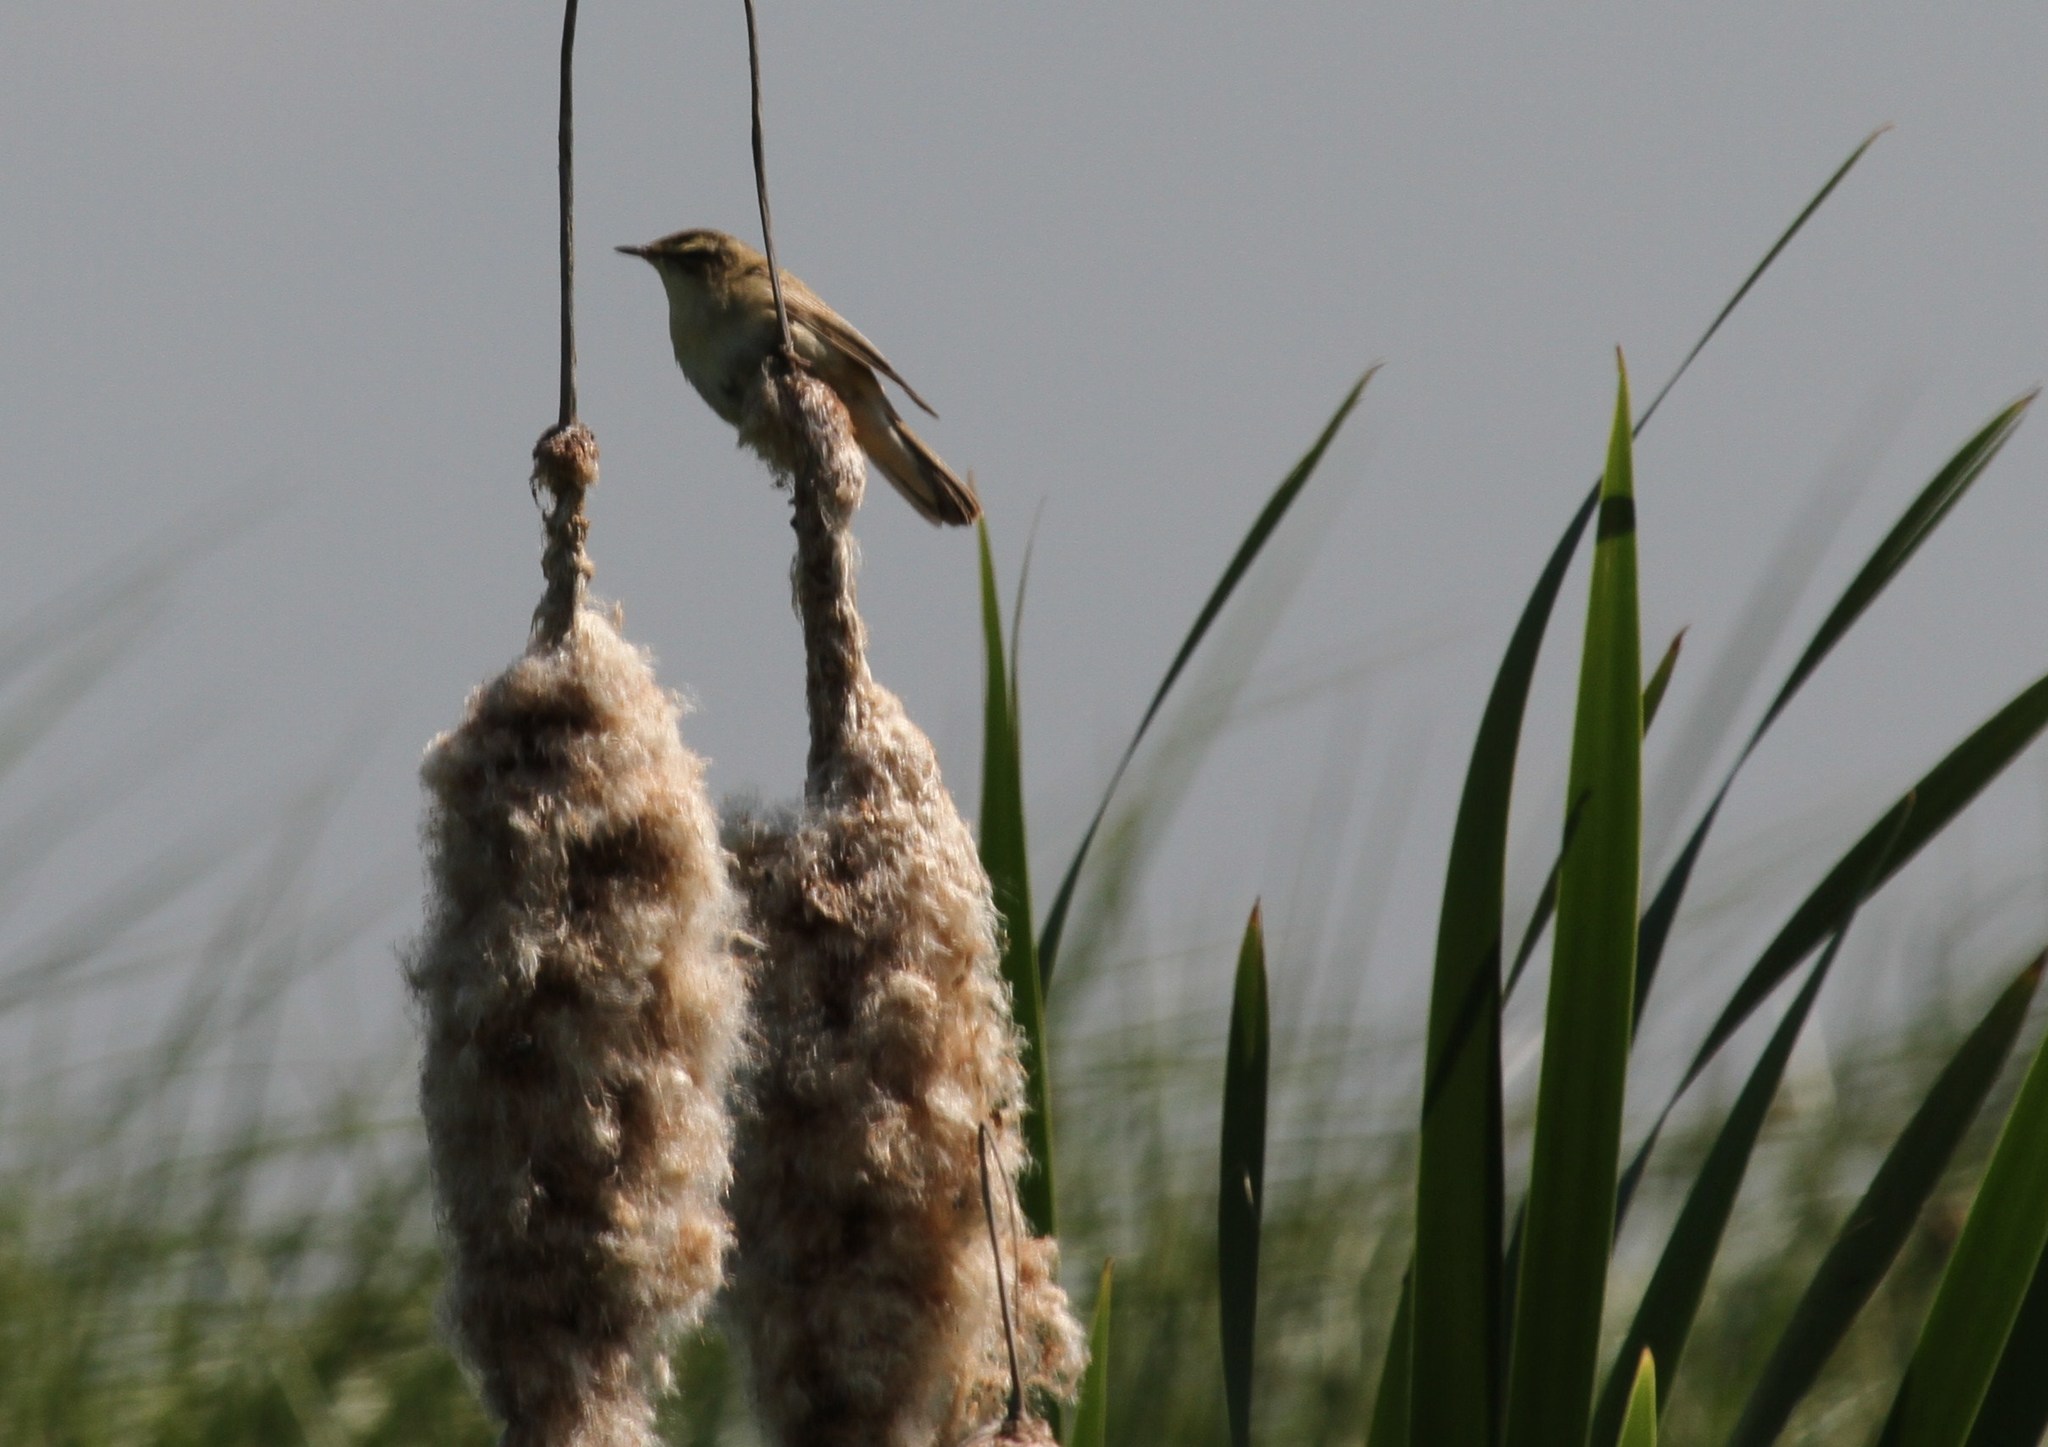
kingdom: Animalia
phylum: Chordata
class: Aves
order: Passeriformes
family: Acrocephalidae
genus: Acrocephalus
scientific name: Acrocephalus schoenobaenus
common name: Sedge warbler
